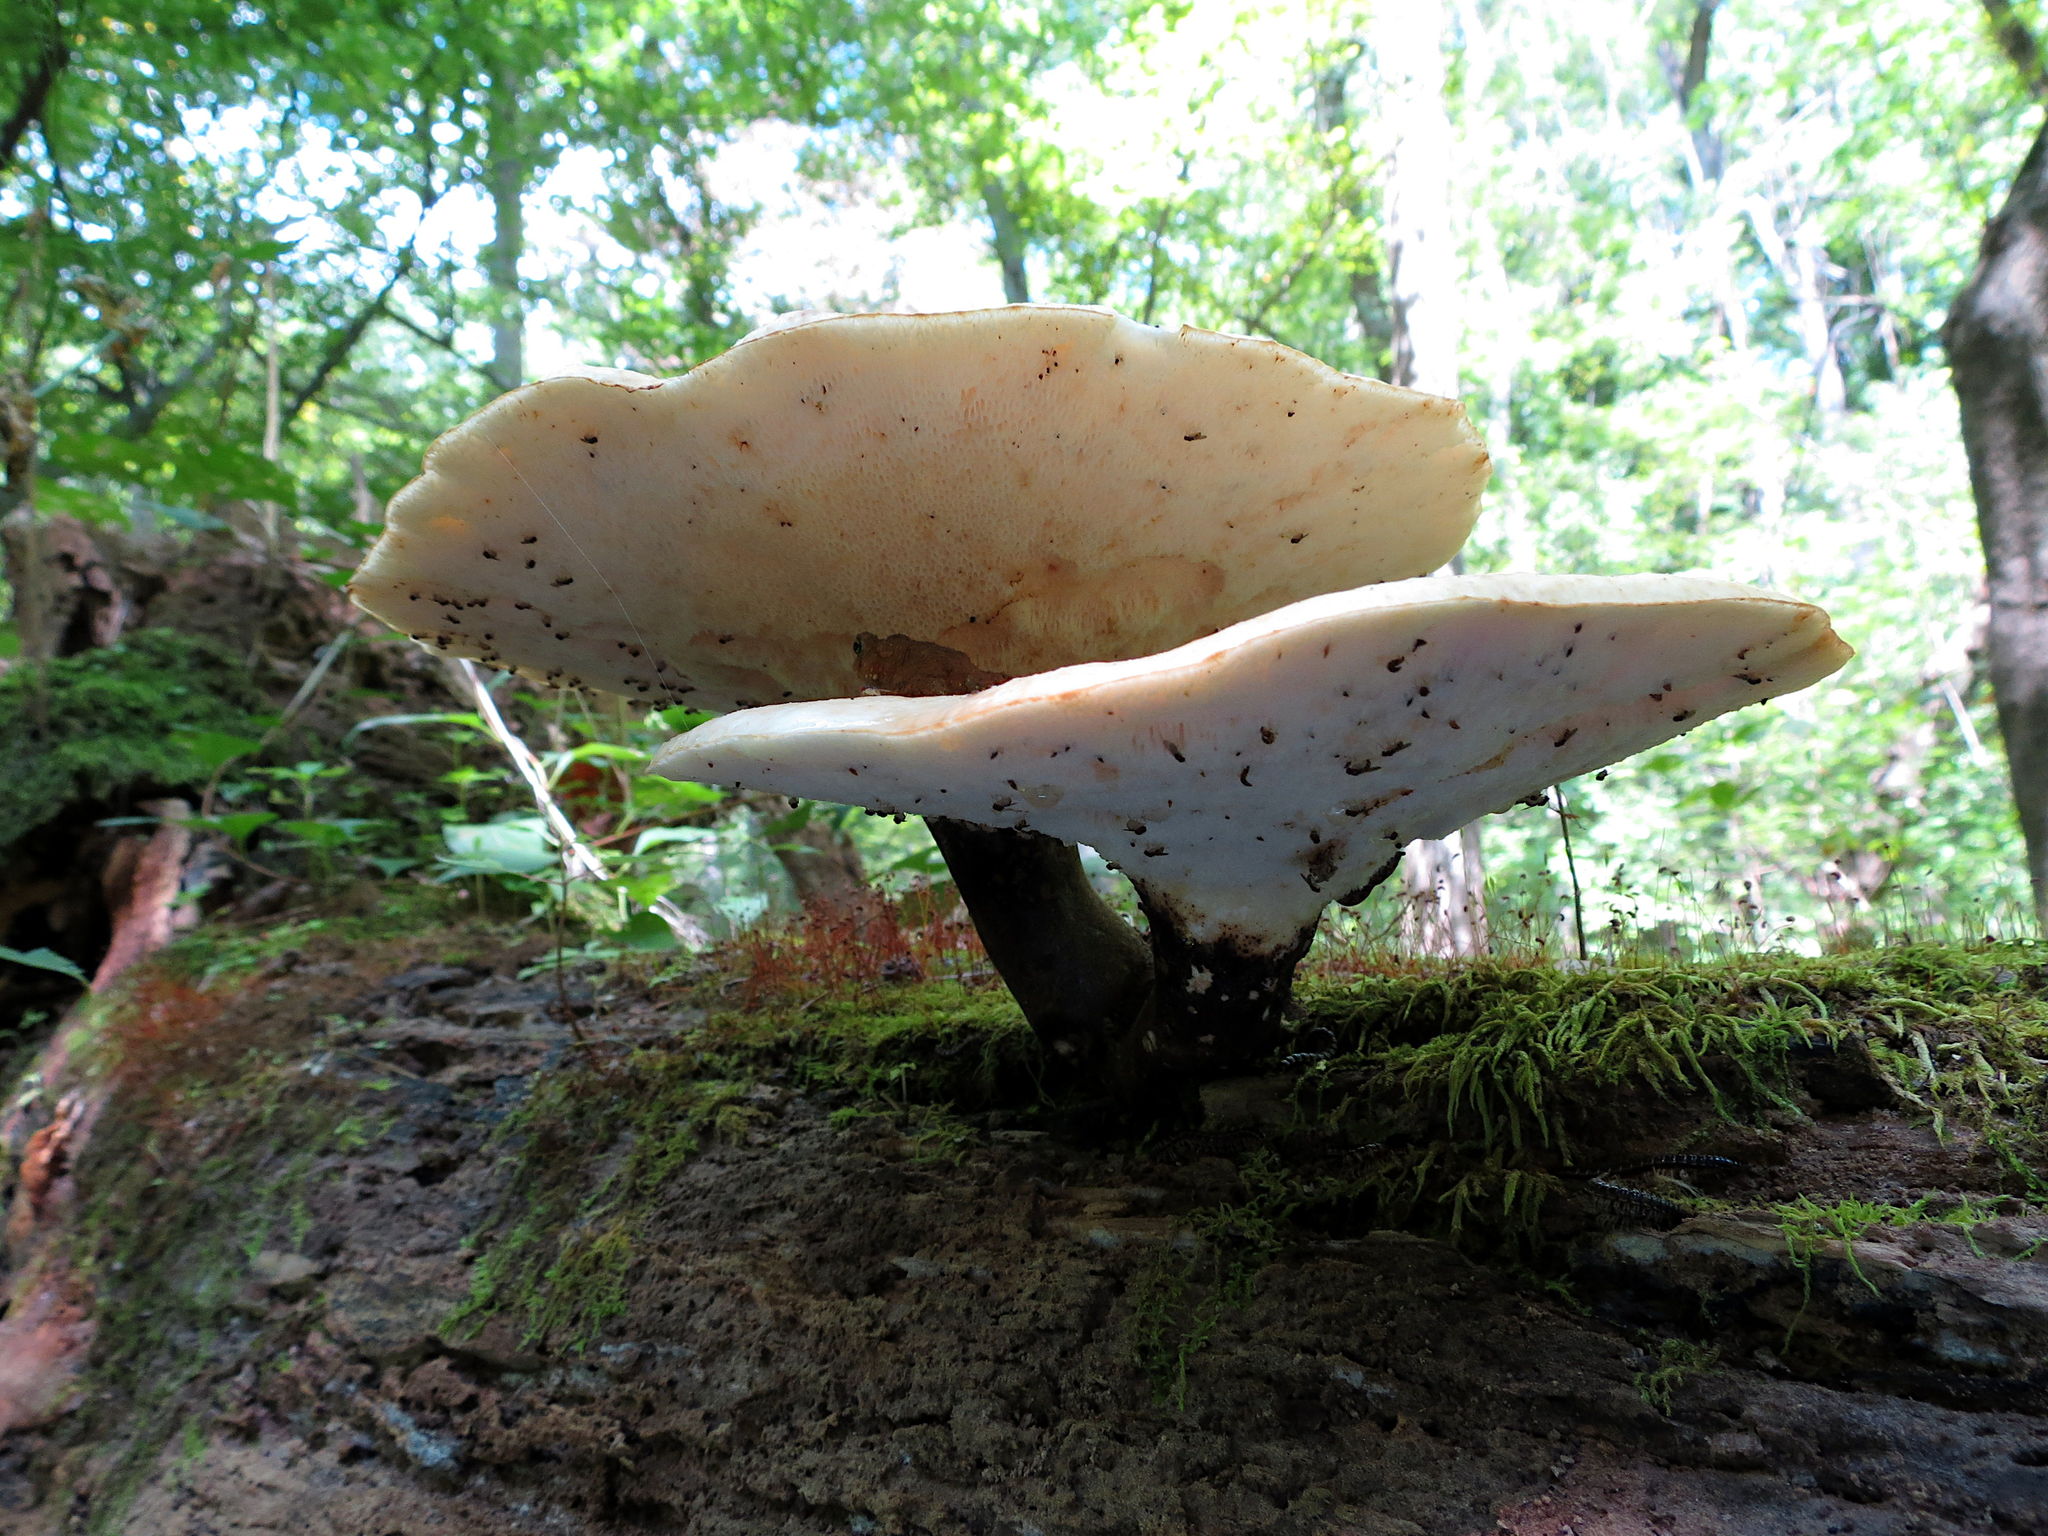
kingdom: Fungi
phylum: Basidiomycota
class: Agaricomycetes
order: Polyporales
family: Polyporaceae
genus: Cerioporus
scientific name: Cerioporus squamosus
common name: Dryad's saddle
